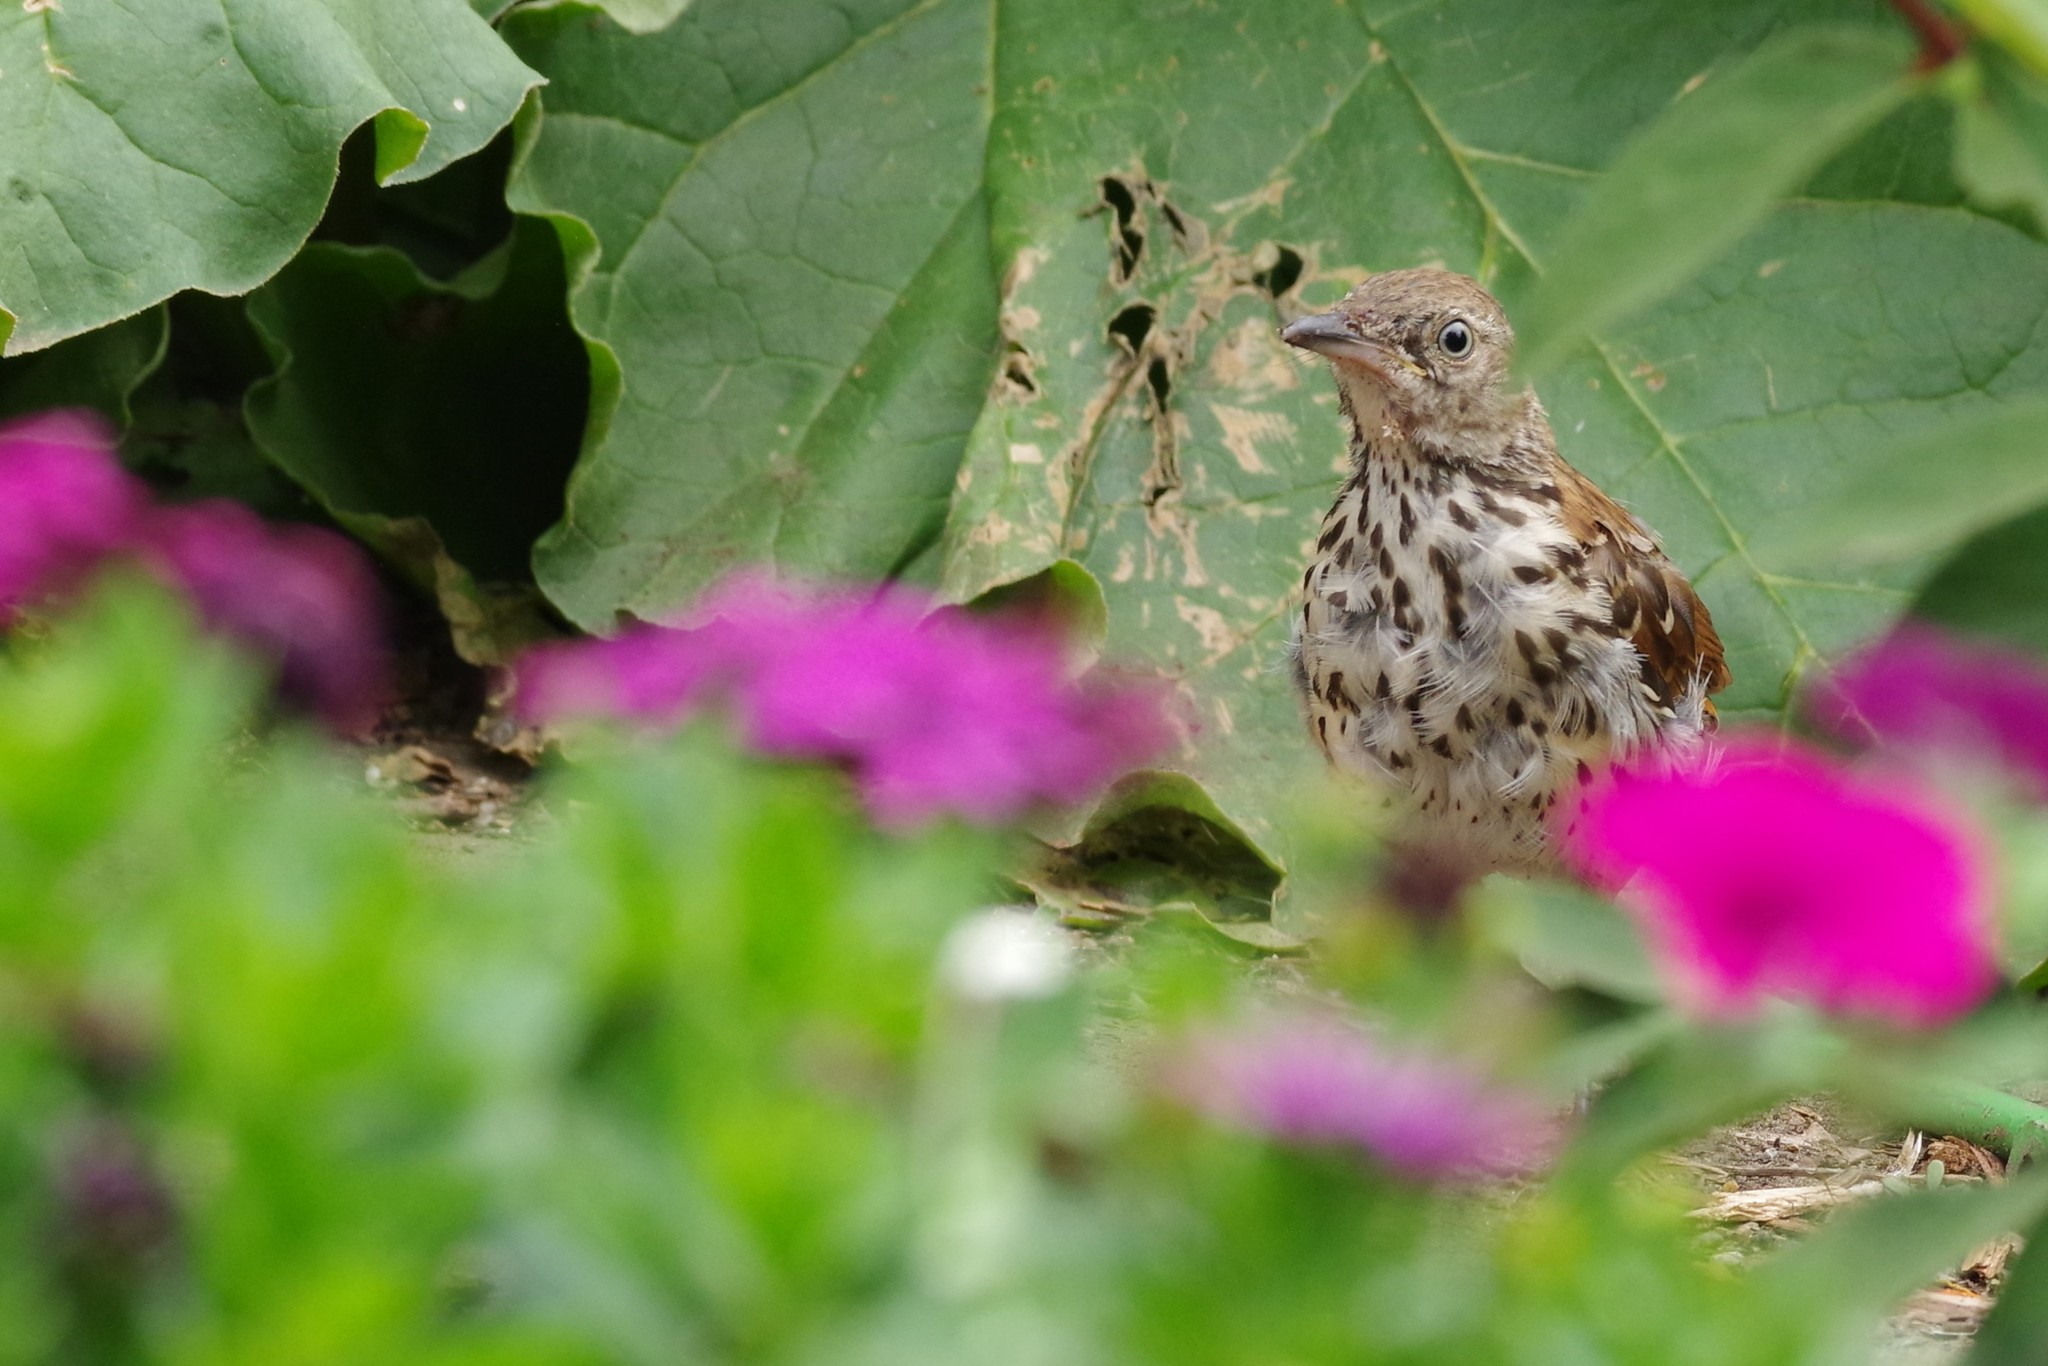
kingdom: Animalia
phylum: Chordata
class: Aves
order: Passeriformes
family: Mimidae
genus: Toxostoma
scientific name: Toxostoma rufum
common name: Brown thrasher
